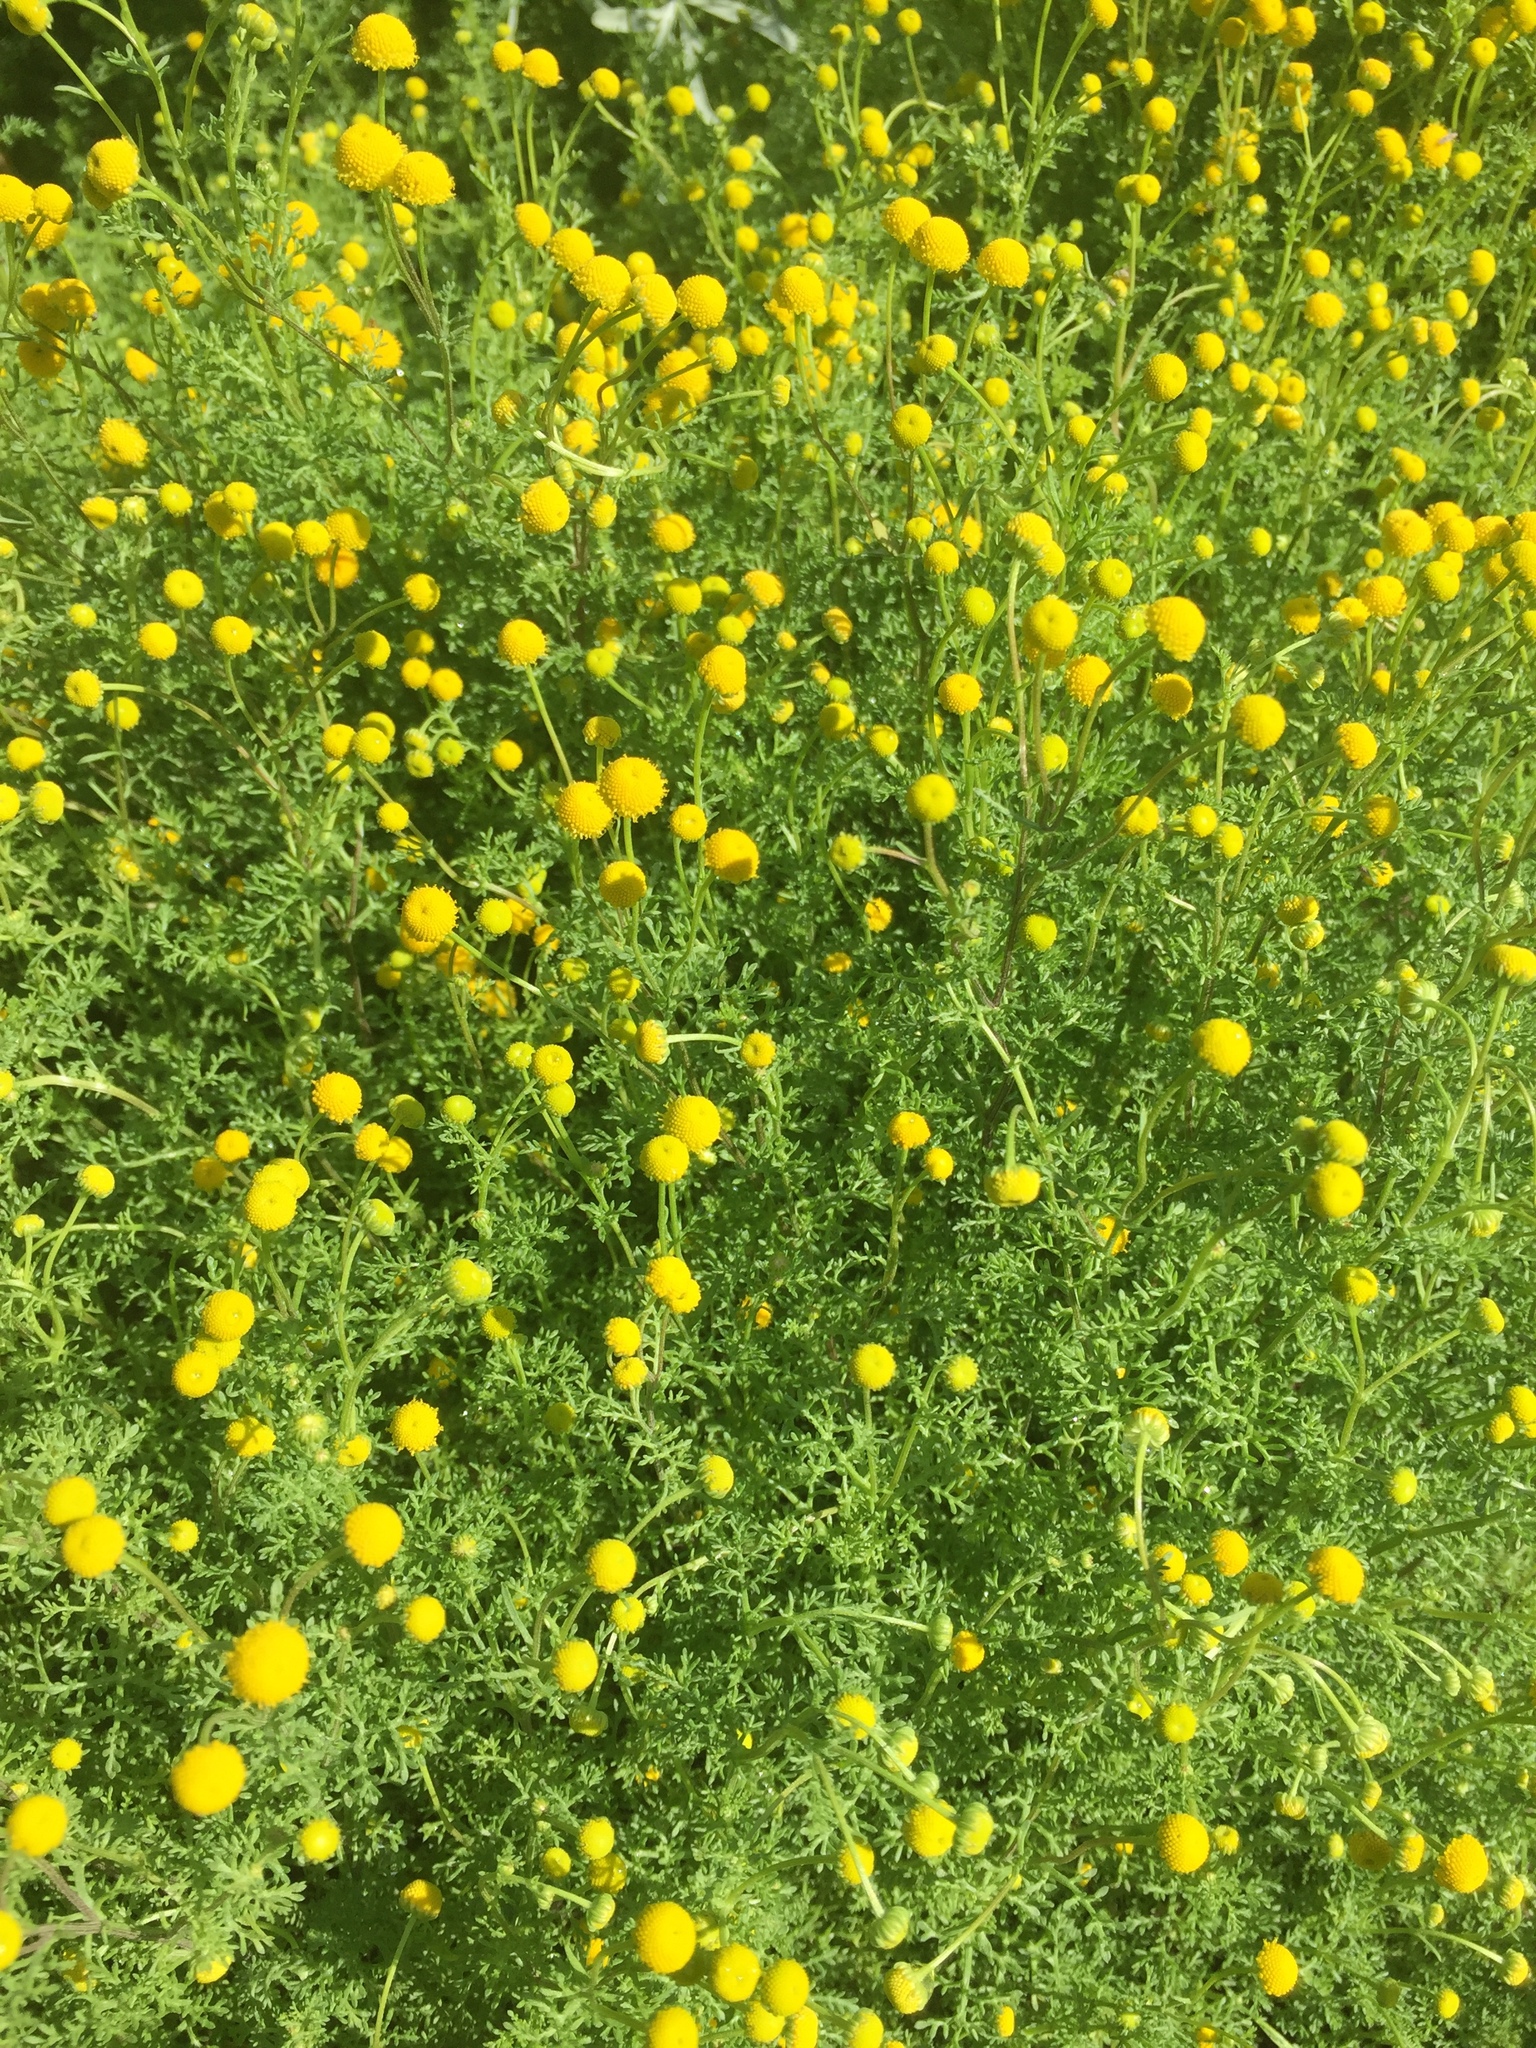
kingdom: Plantae
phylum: Tracheophyta
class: Magnoliopsida
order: Asterales
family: Asteraceae
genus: Oncosiphon
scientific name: Oncosiphon pilulifer
